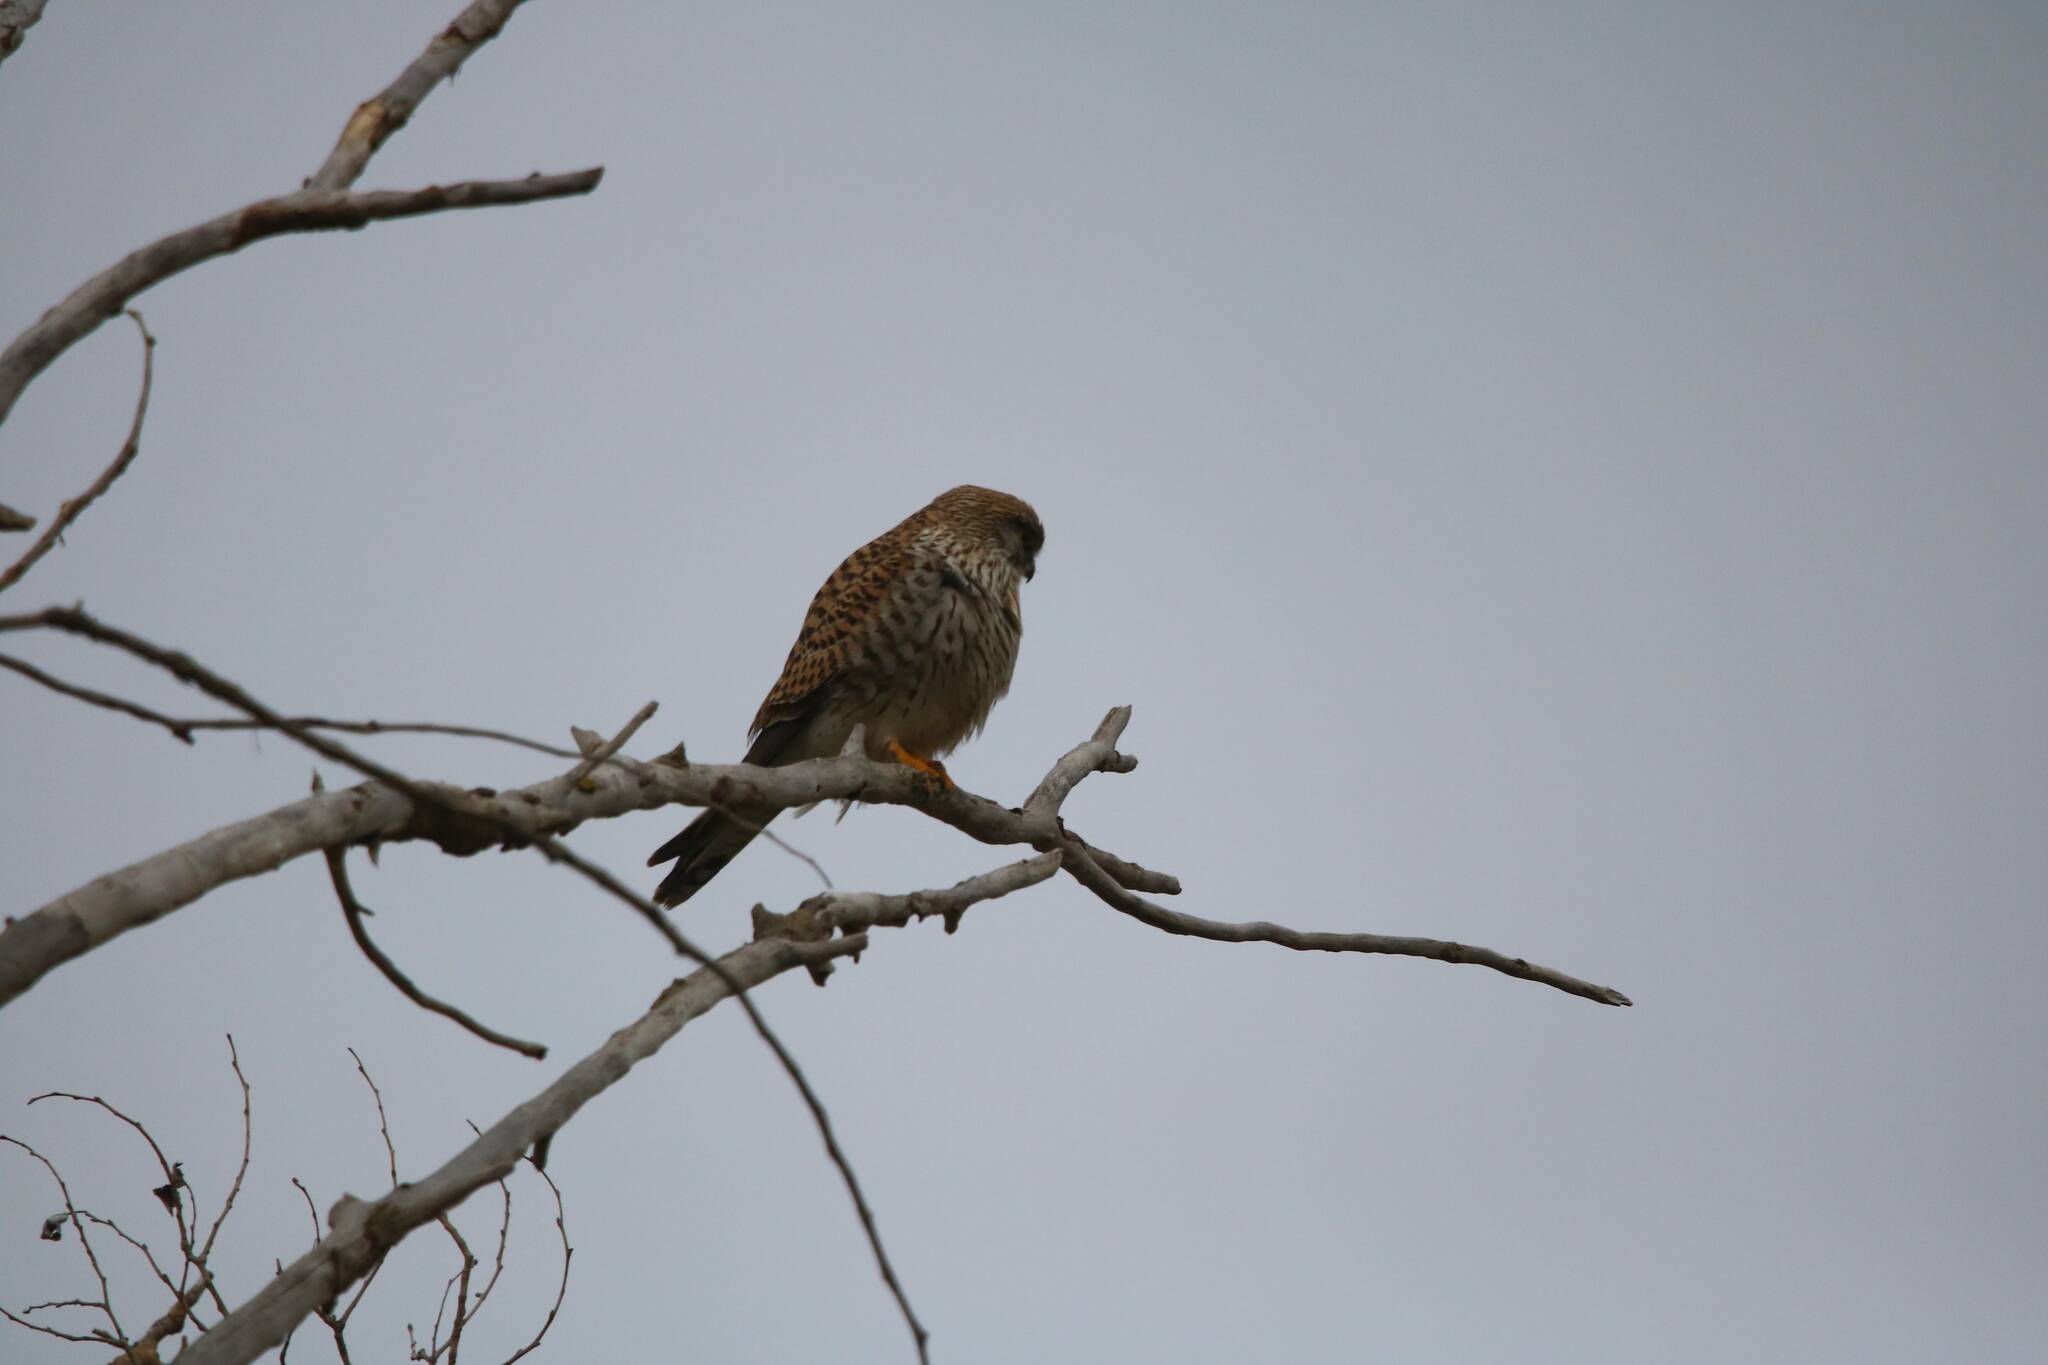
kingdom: Animalia
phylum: Chordata
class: Aves
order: Falconiformes
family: Falconidae
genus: Falco
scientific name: Falco tinnunculus
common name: Common kestrel
